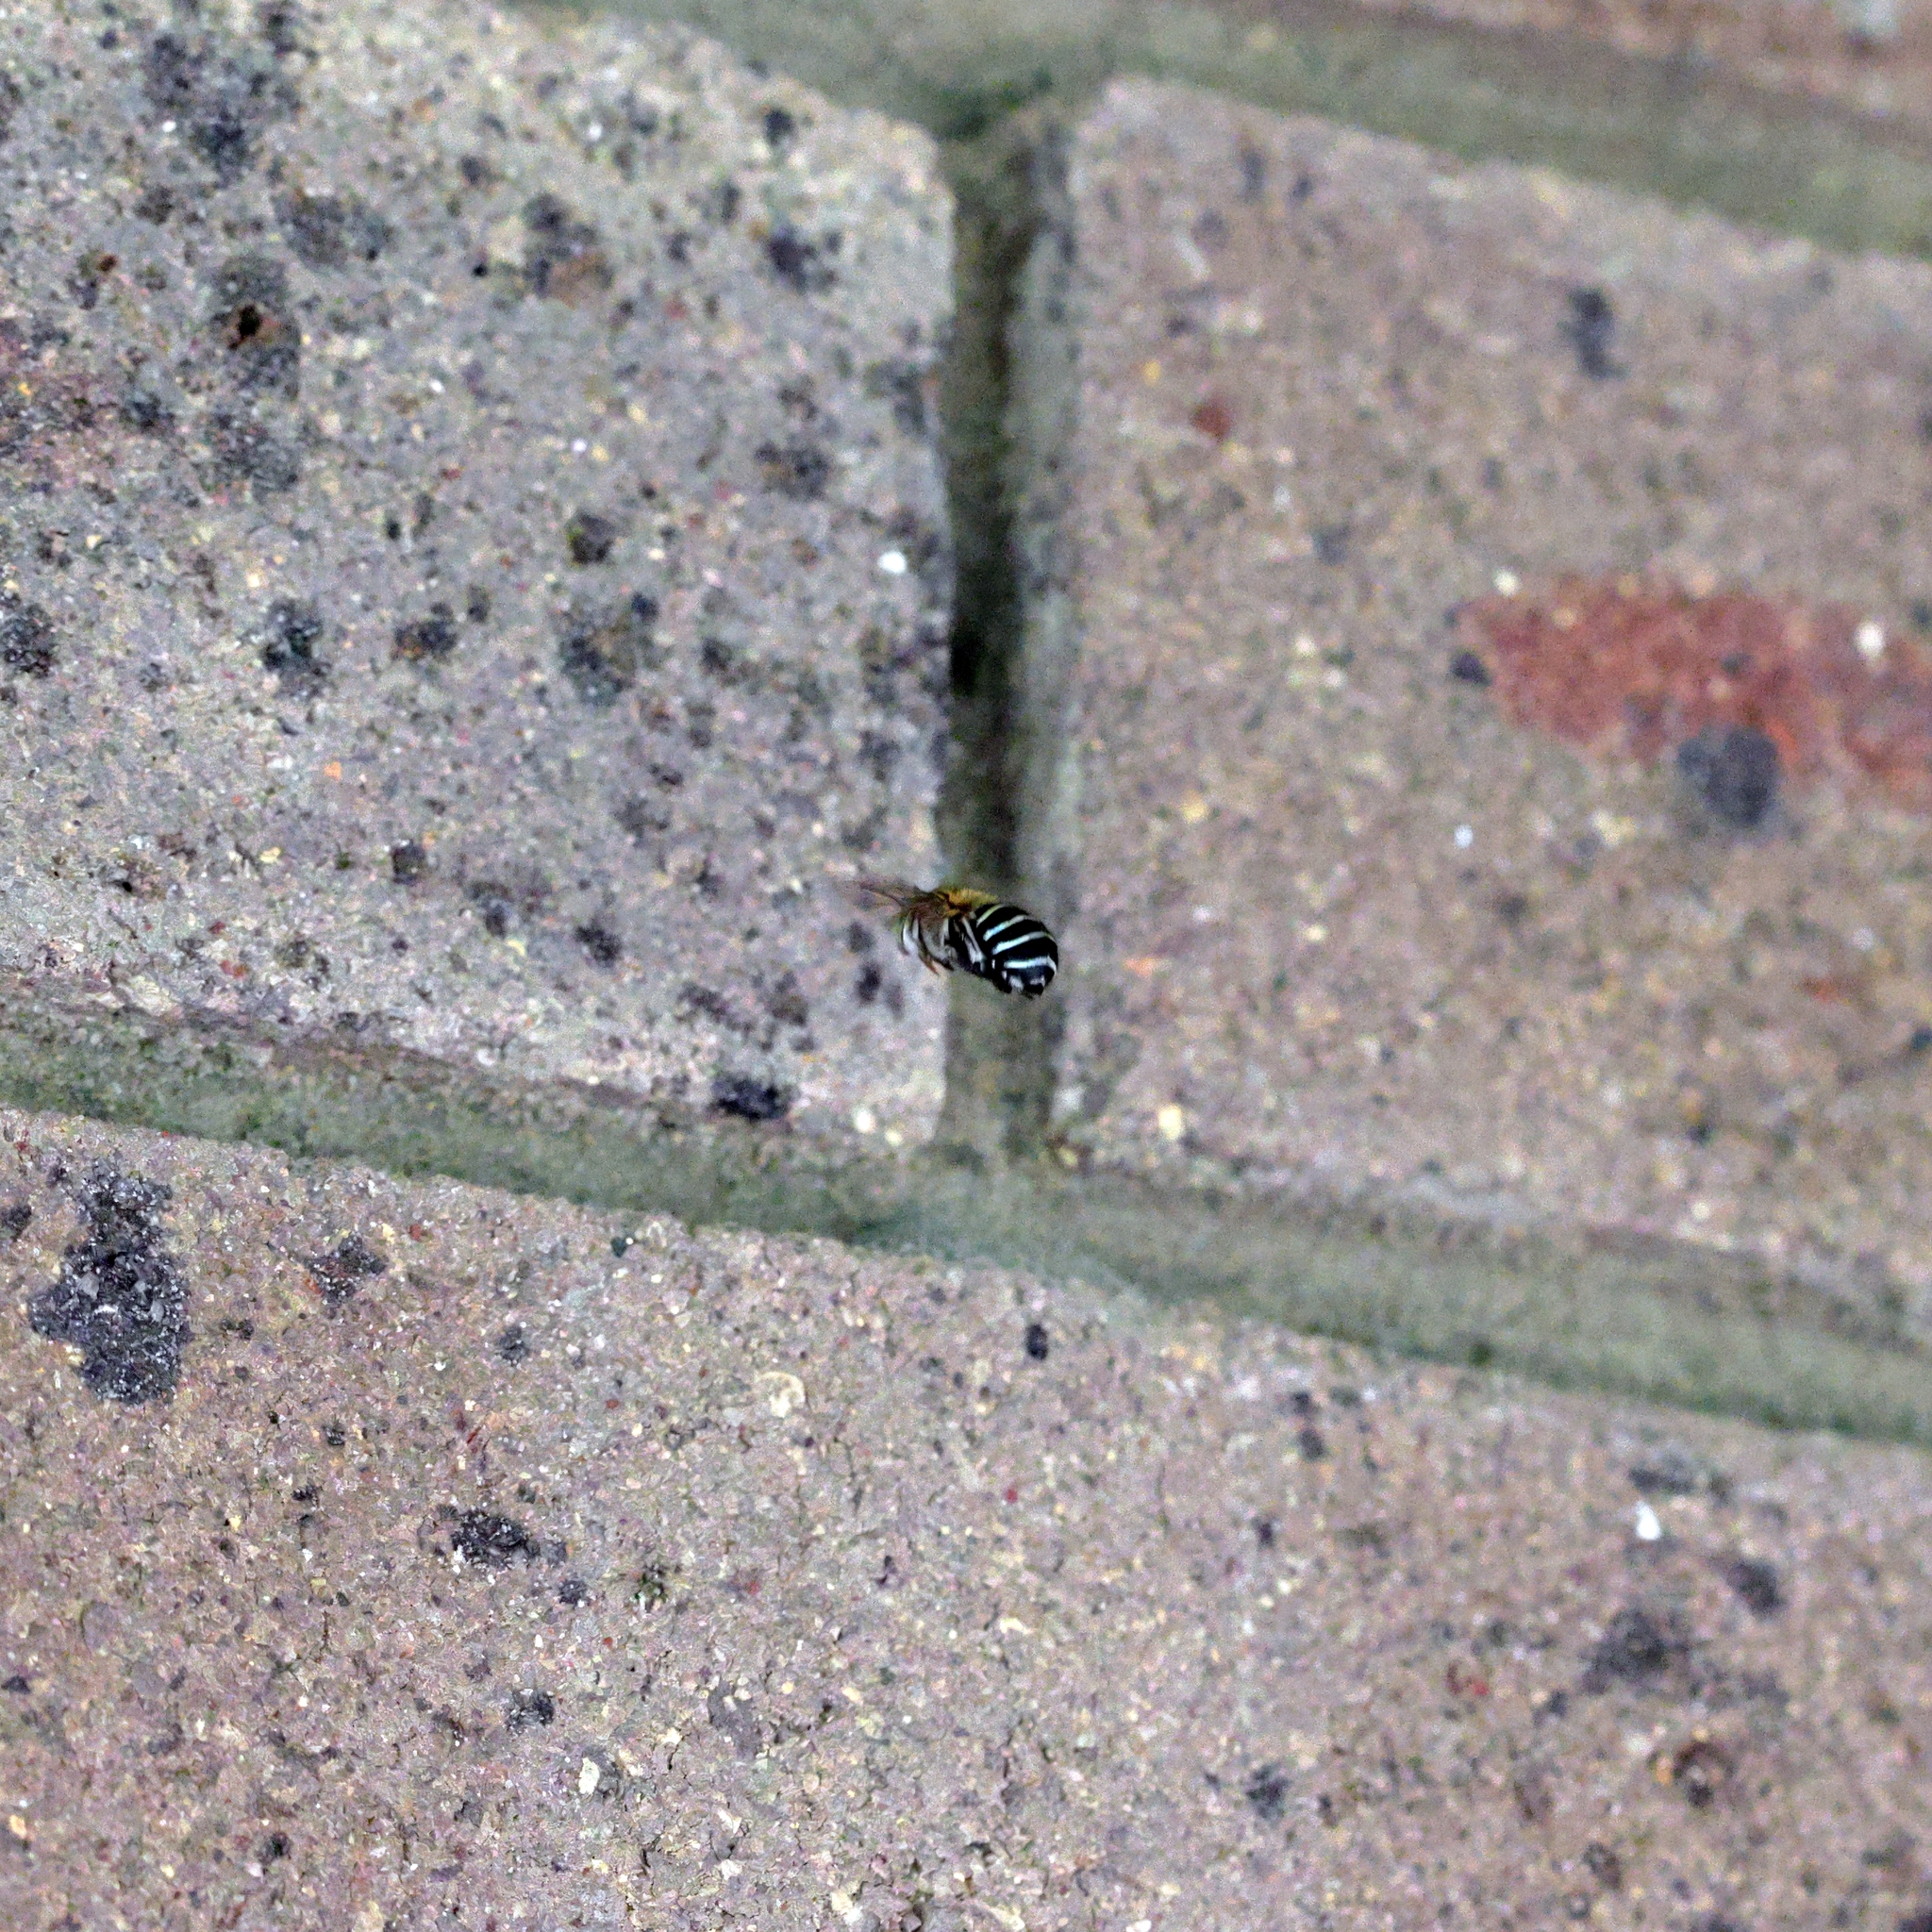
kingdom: Animalia
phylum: Arthropoda
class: Insecta
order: Hymenoptera
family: Apidae
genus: Amegilla
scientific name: Amegilla asserta
